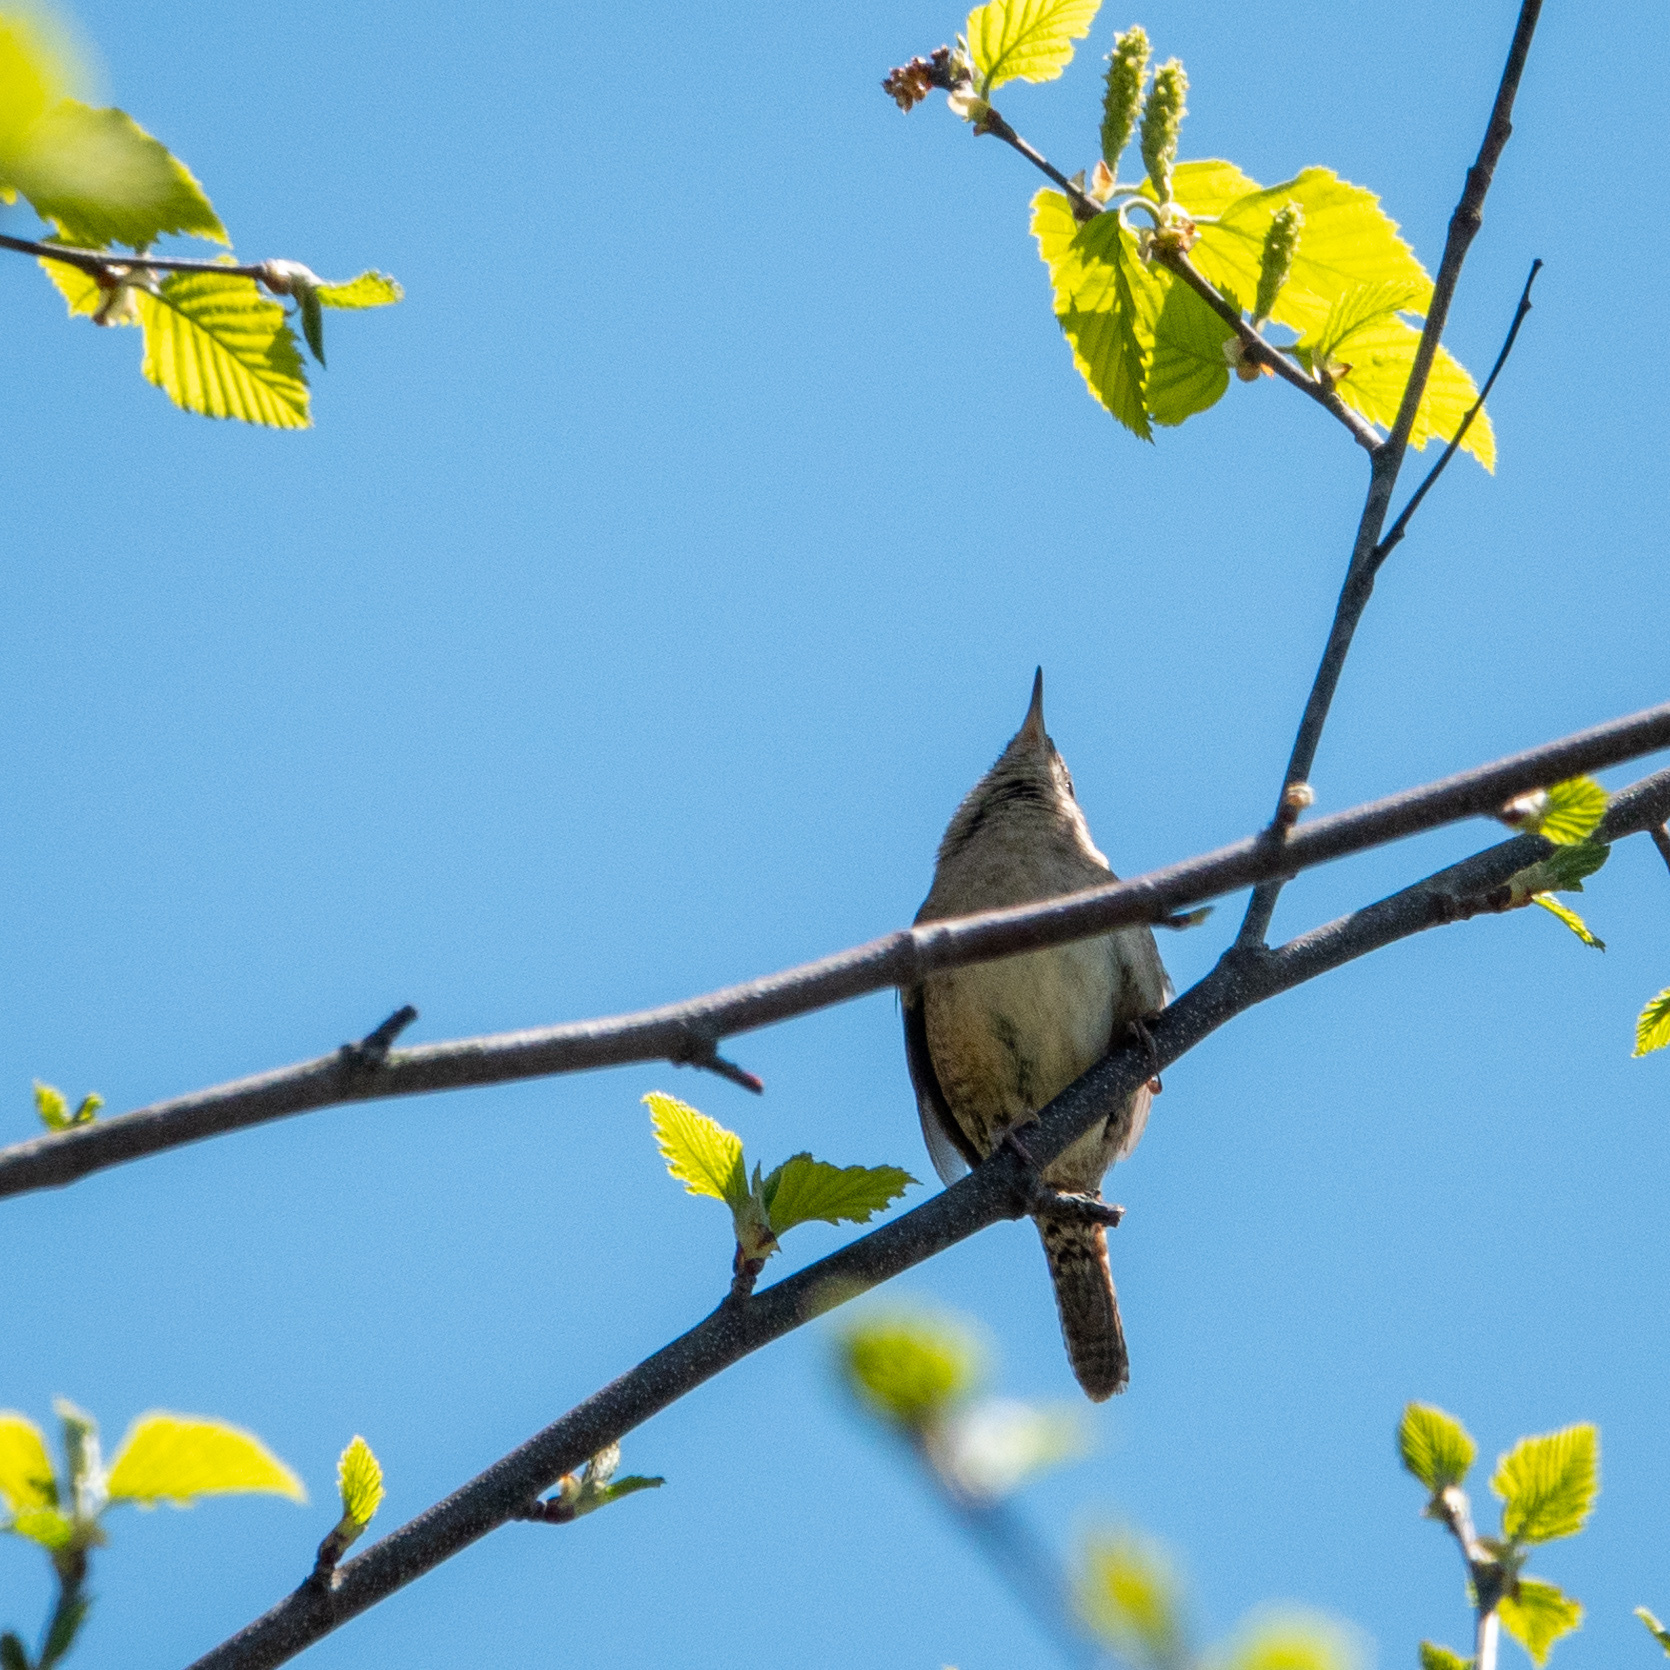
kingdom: Animalia
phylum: Chordata
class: Aves
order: Passeriformes
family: Troglodytidae
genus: Troglodytes
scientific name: Troglodytes aedon
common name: House wren
